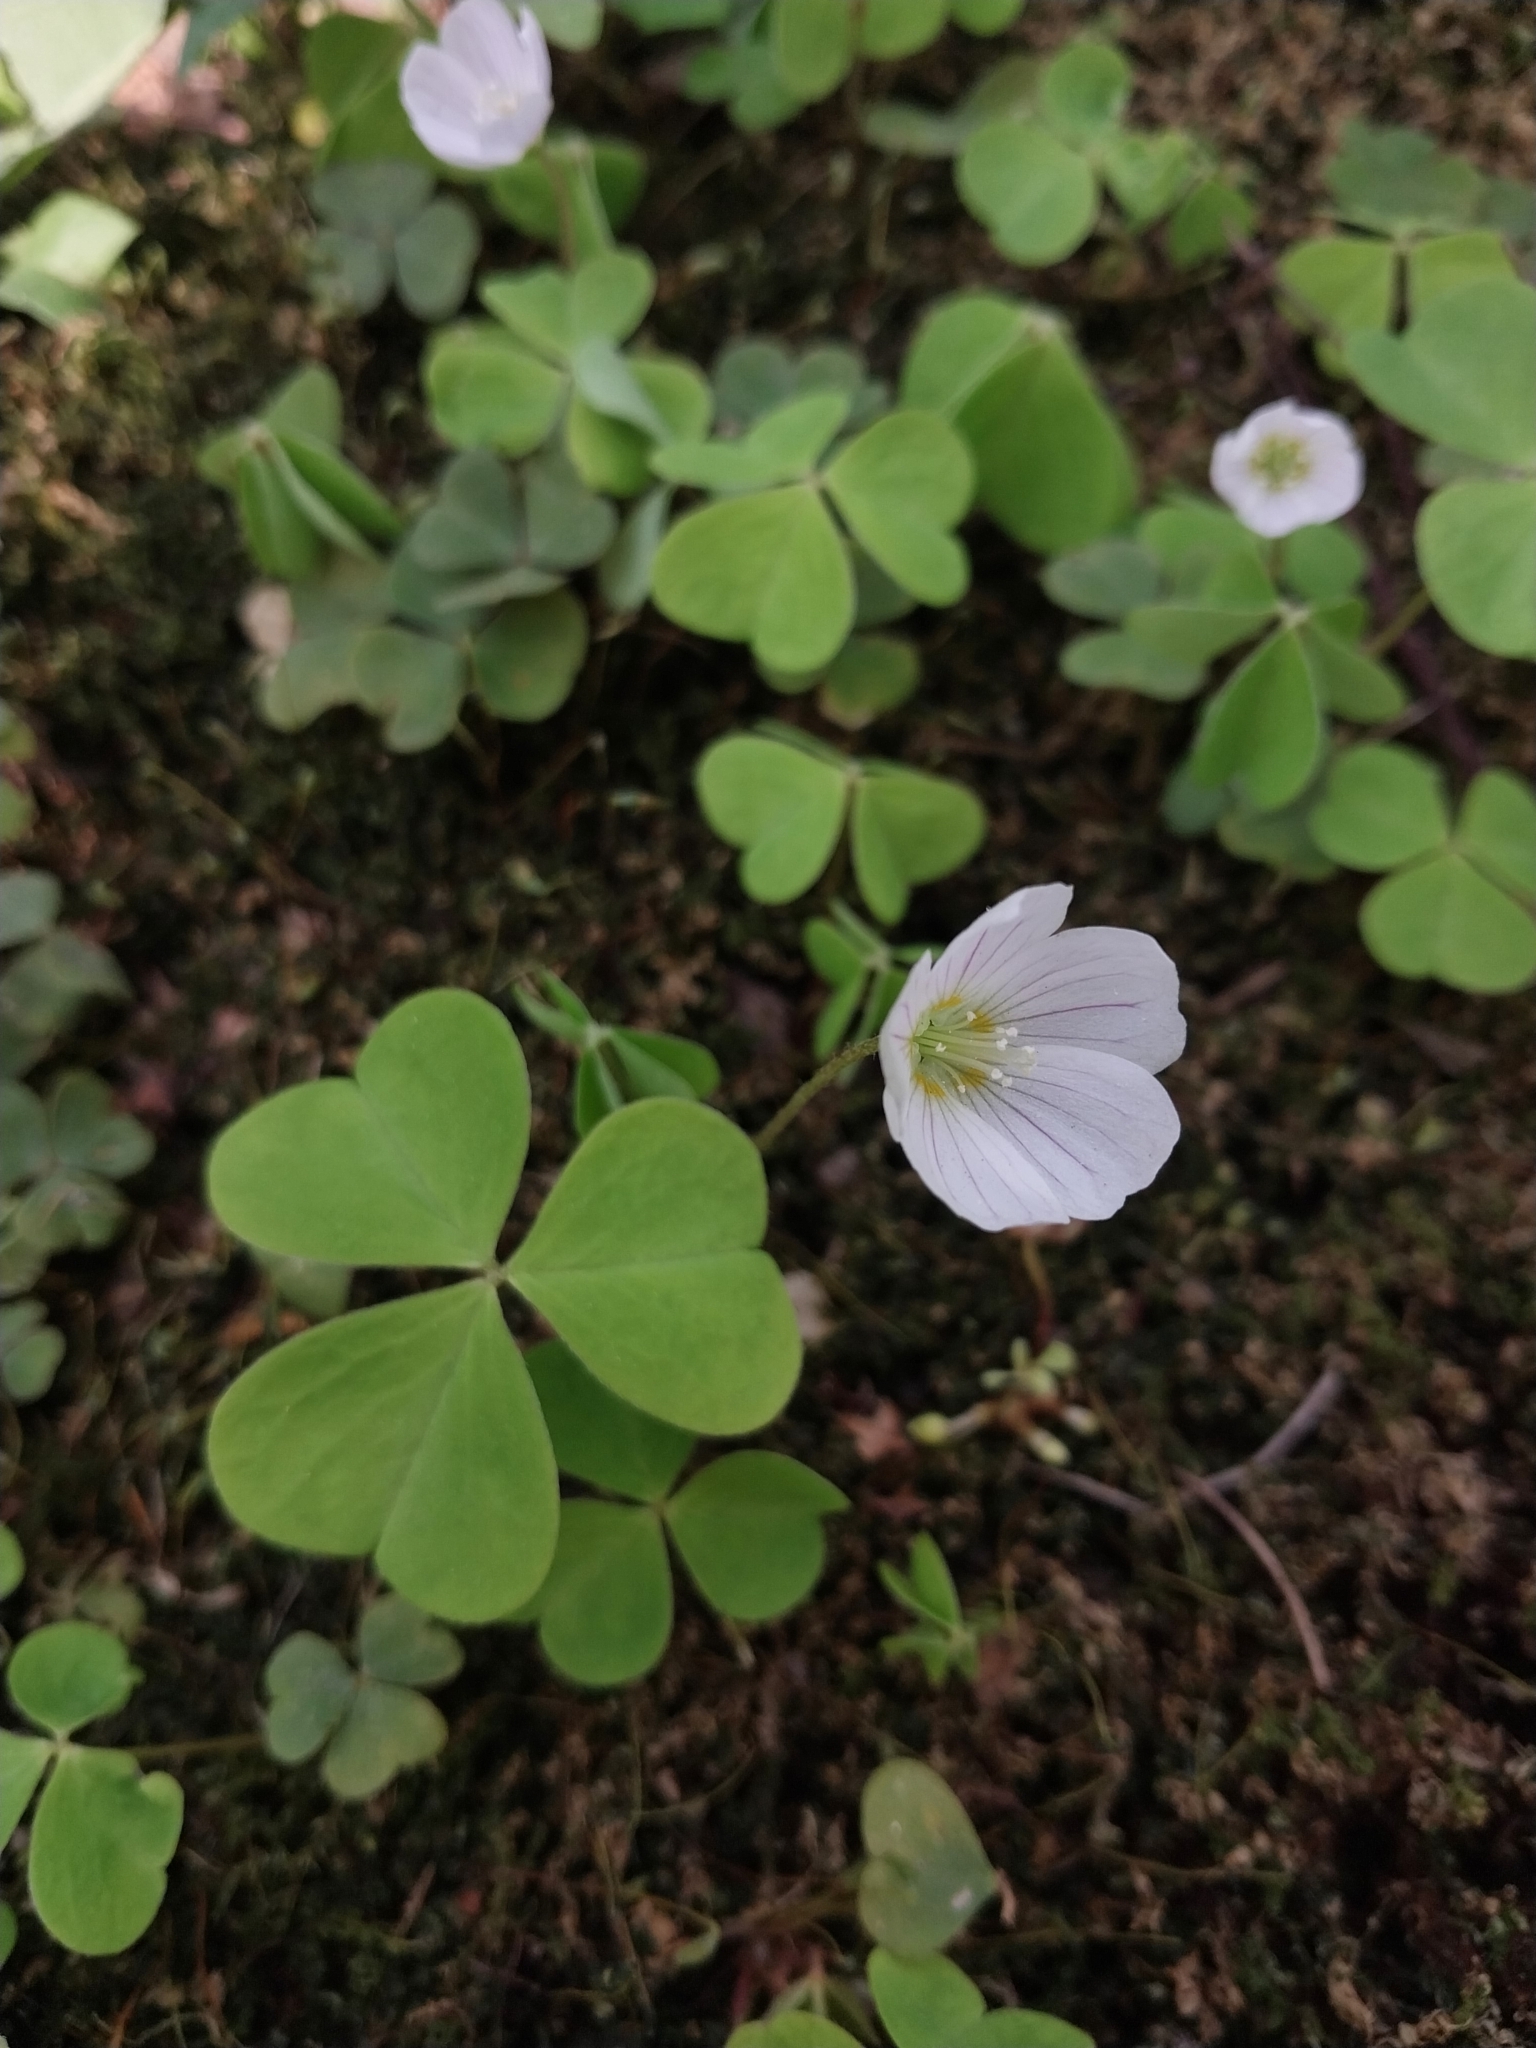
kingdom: Plantae
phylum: Tracheophyta
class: Magnoliopsida
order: Oxalidales
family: Oxalidaceae
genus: Oxalis
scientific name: Oxalis acetosella
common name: Wood-sorrel
